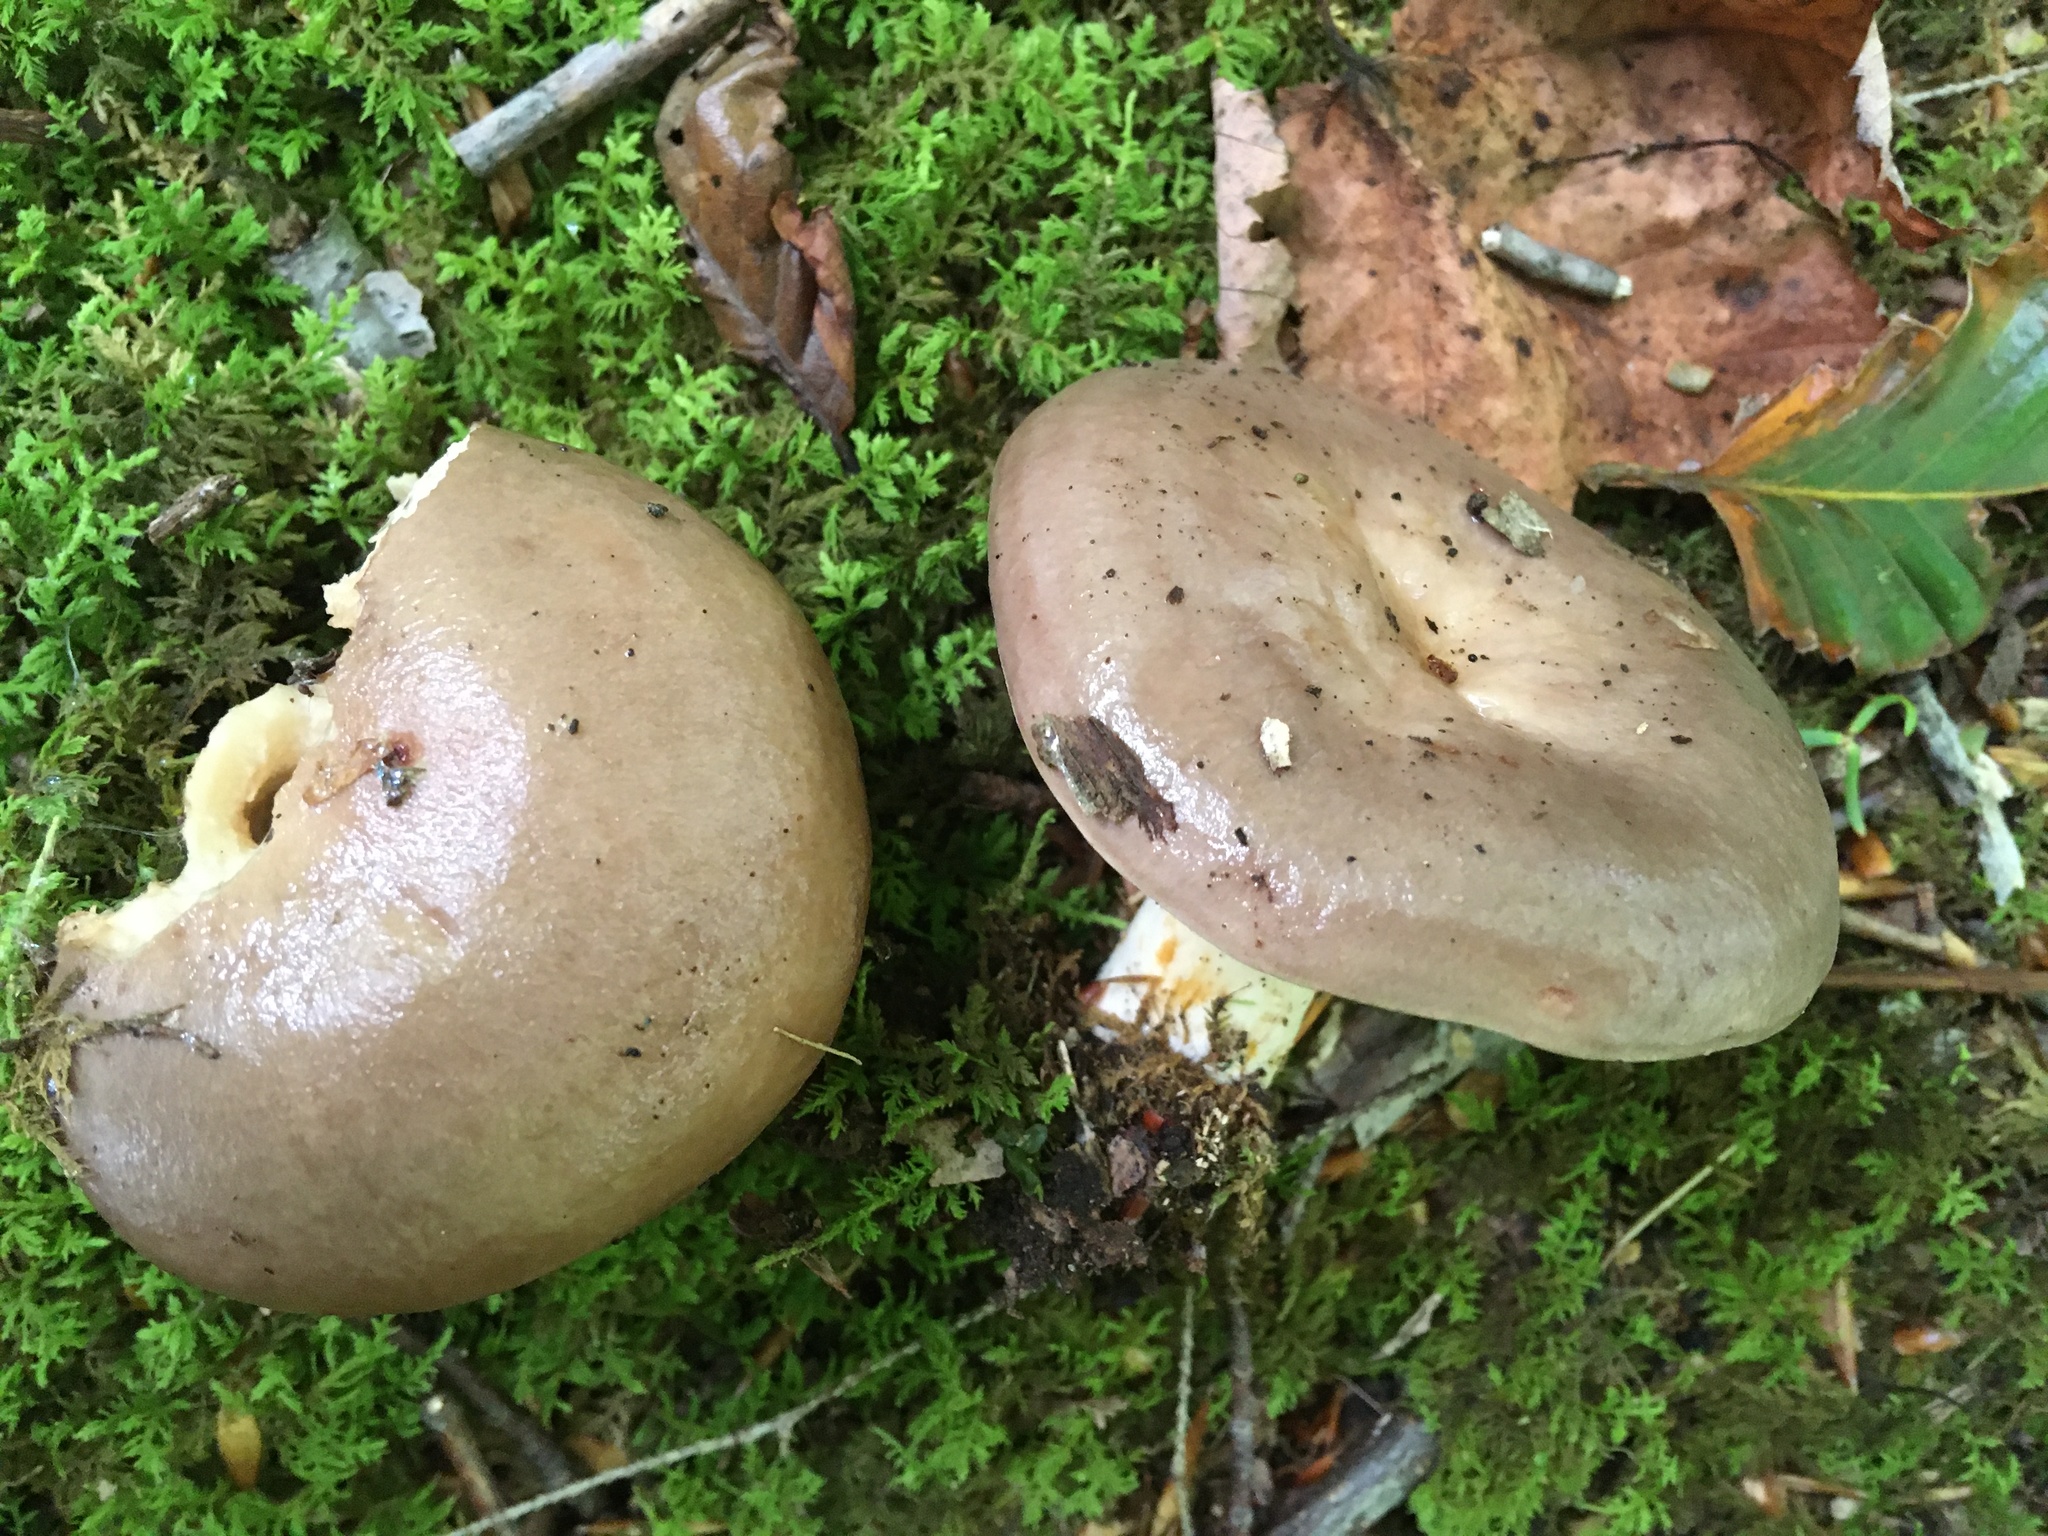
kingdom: Fungi
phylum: Basidiomycota
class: Agaricomycetes
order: Russulales
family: Russulaceae
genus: Lactarius
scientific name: Lactarius argillaceifolius
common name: Clay-gilled milkcap
